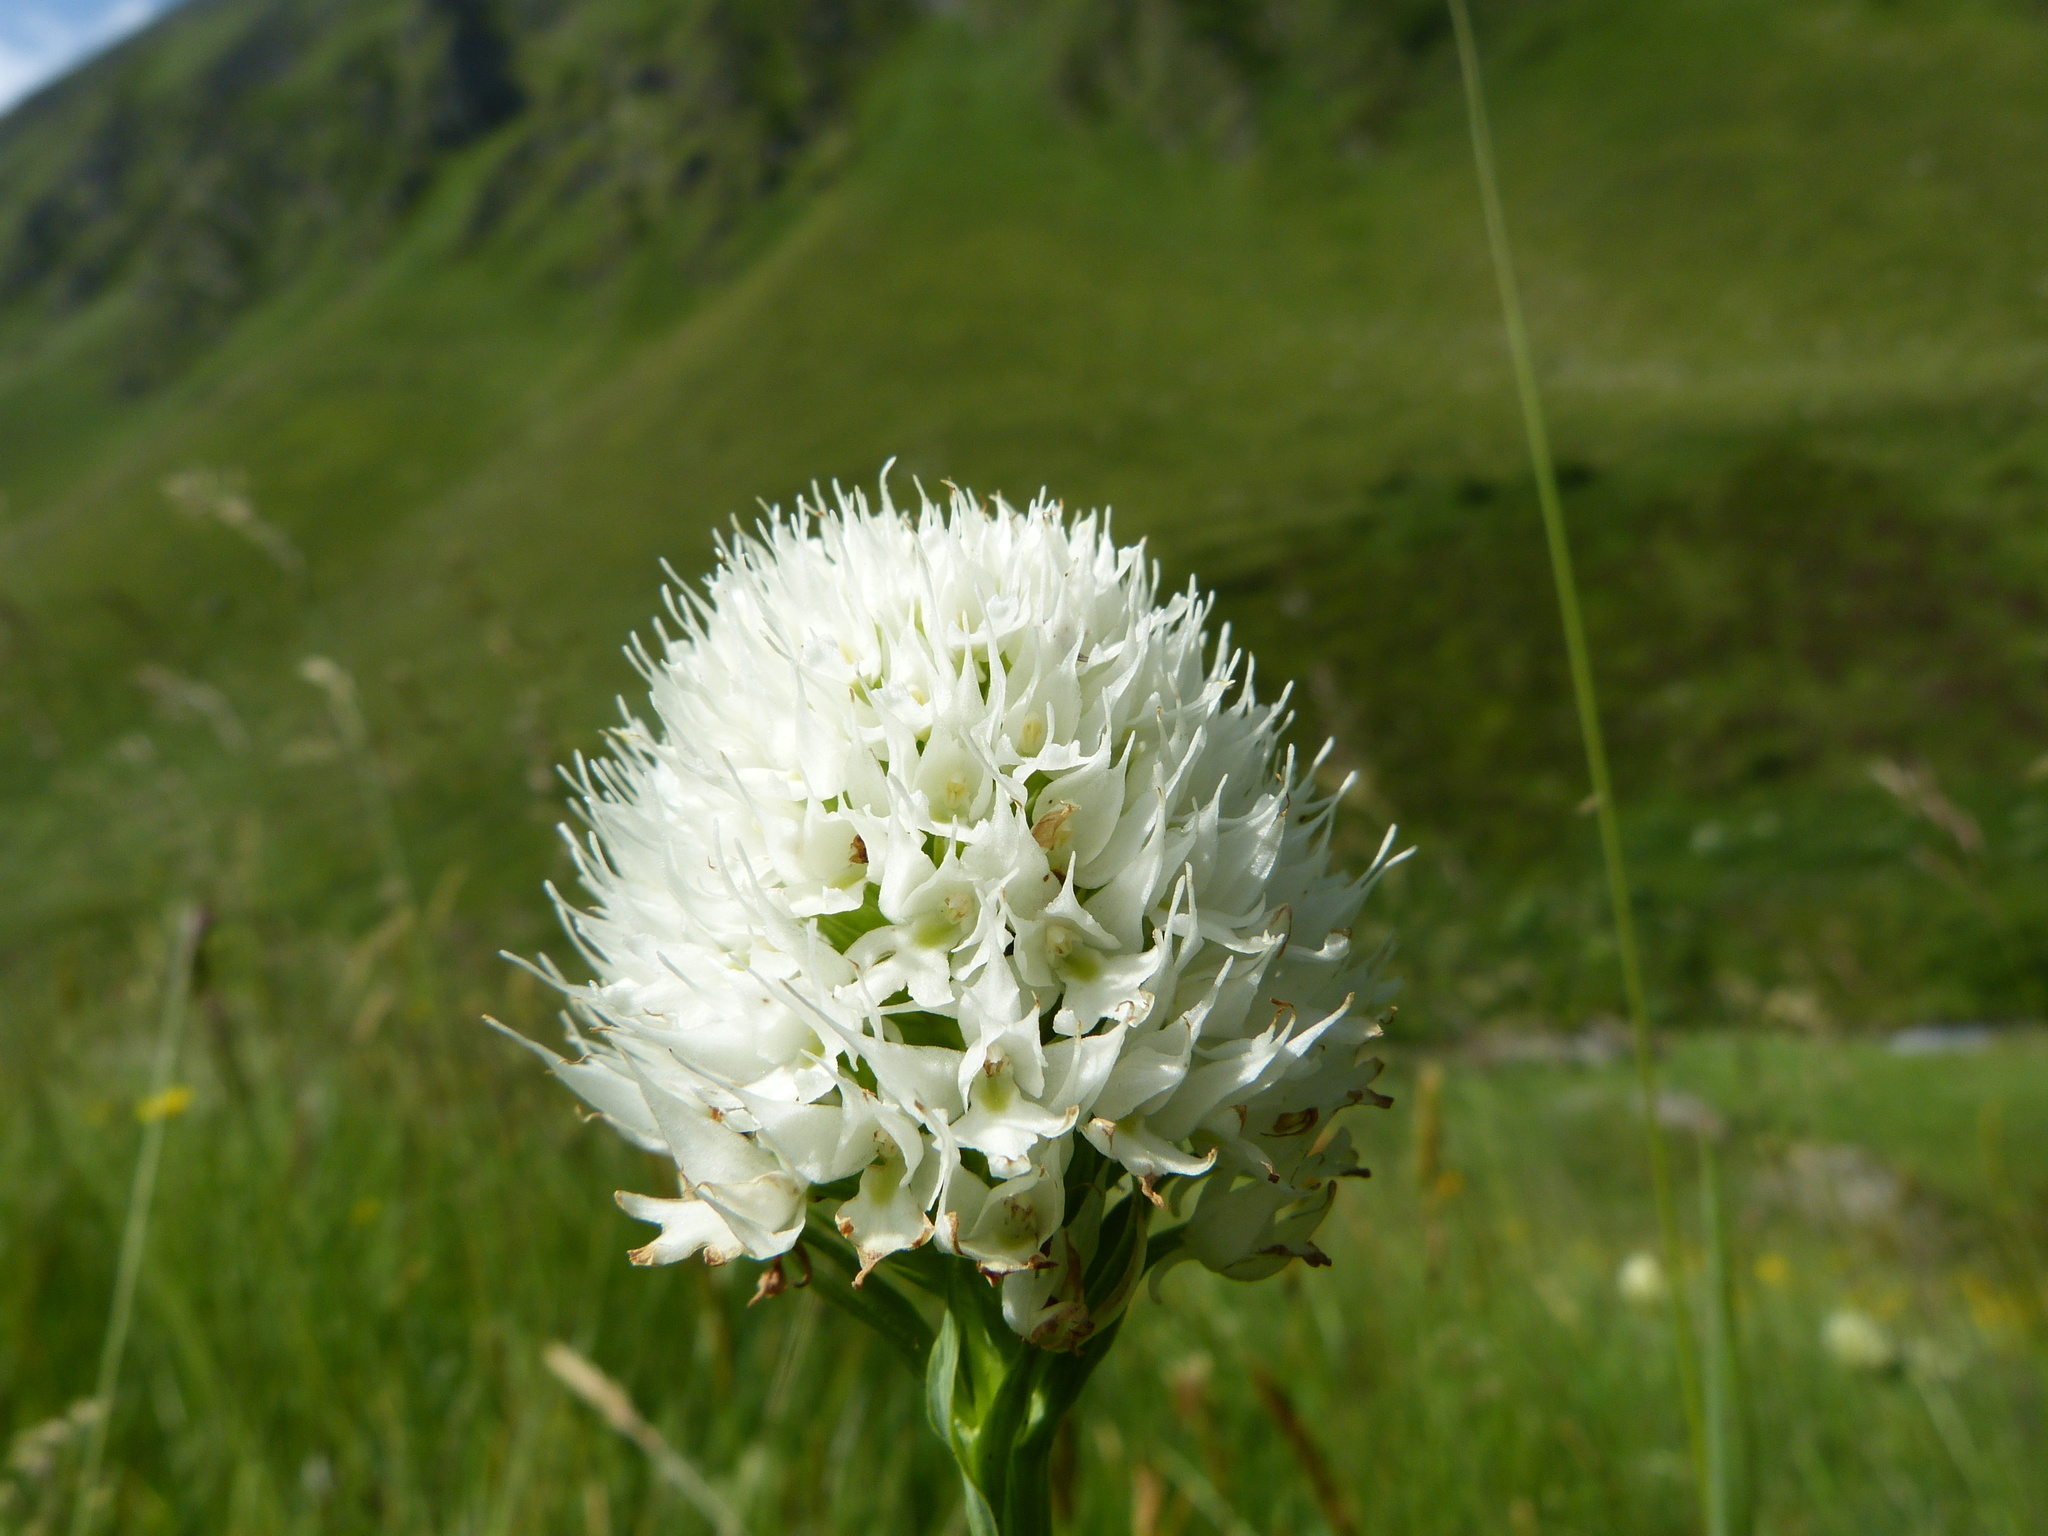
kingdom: Plantae
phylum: Tracheophyta
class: Liliopsida
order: Asparagales
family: Orchidaceae
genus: Traunsteinera
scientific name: Traunsteinera sphaerica
